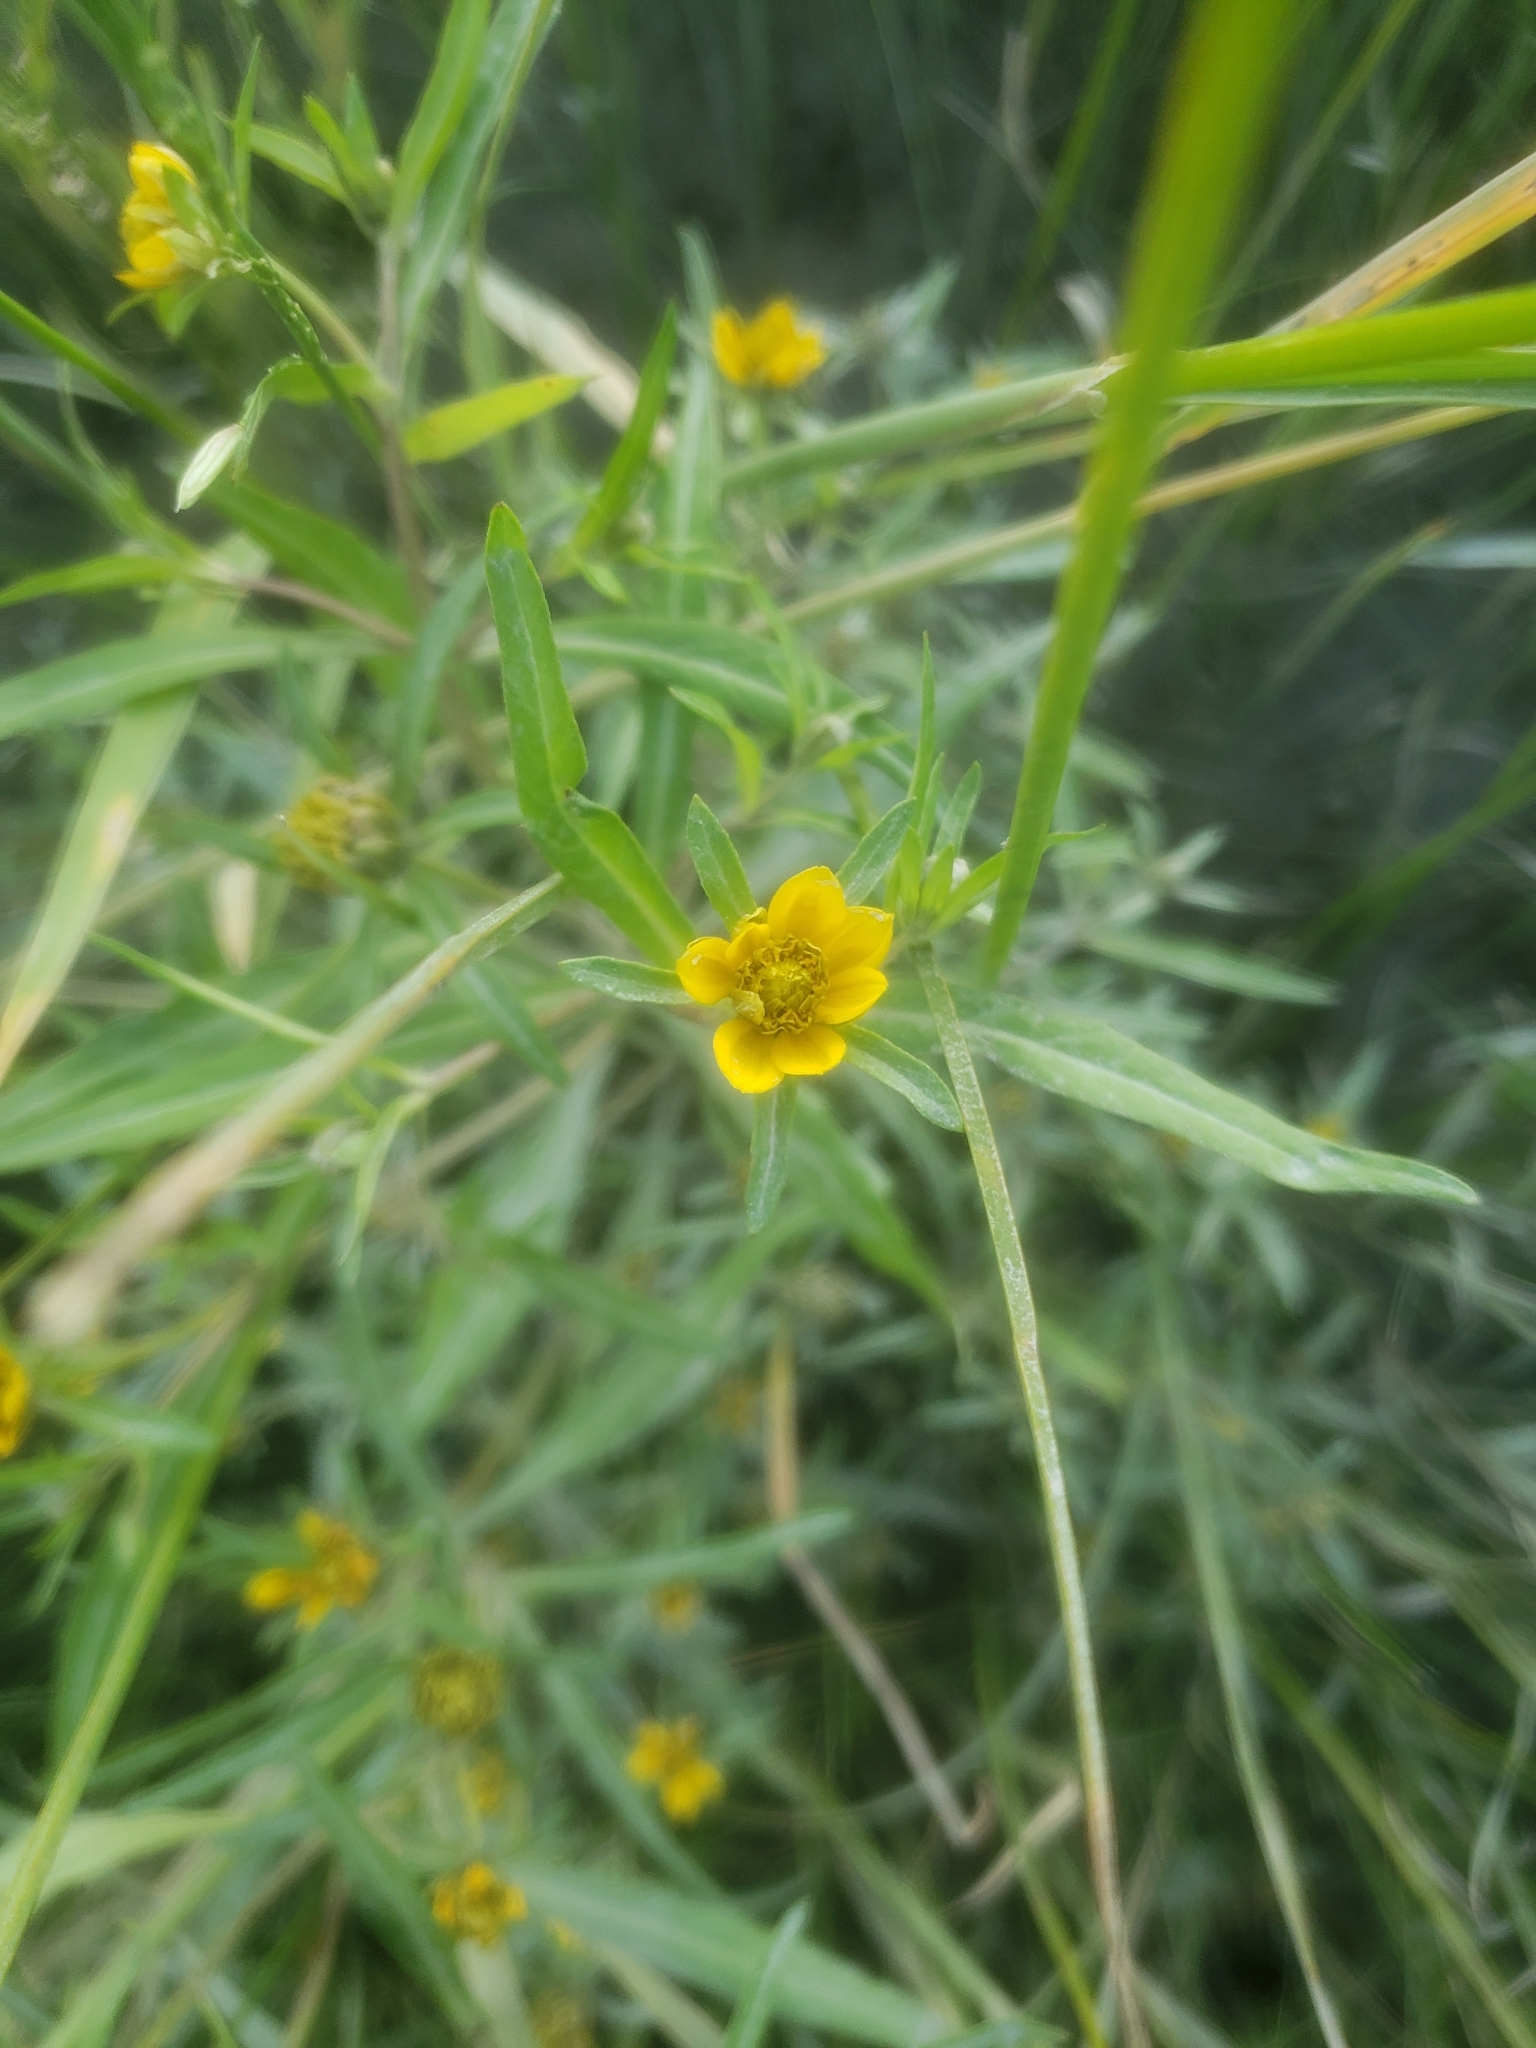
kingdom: Plantae
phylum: Tracheophyta
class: Magnoliopsida
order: Asterales
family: Asteraceae
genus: Bidens
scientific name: Bidens hyperborea
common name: Coastal beggarticks
